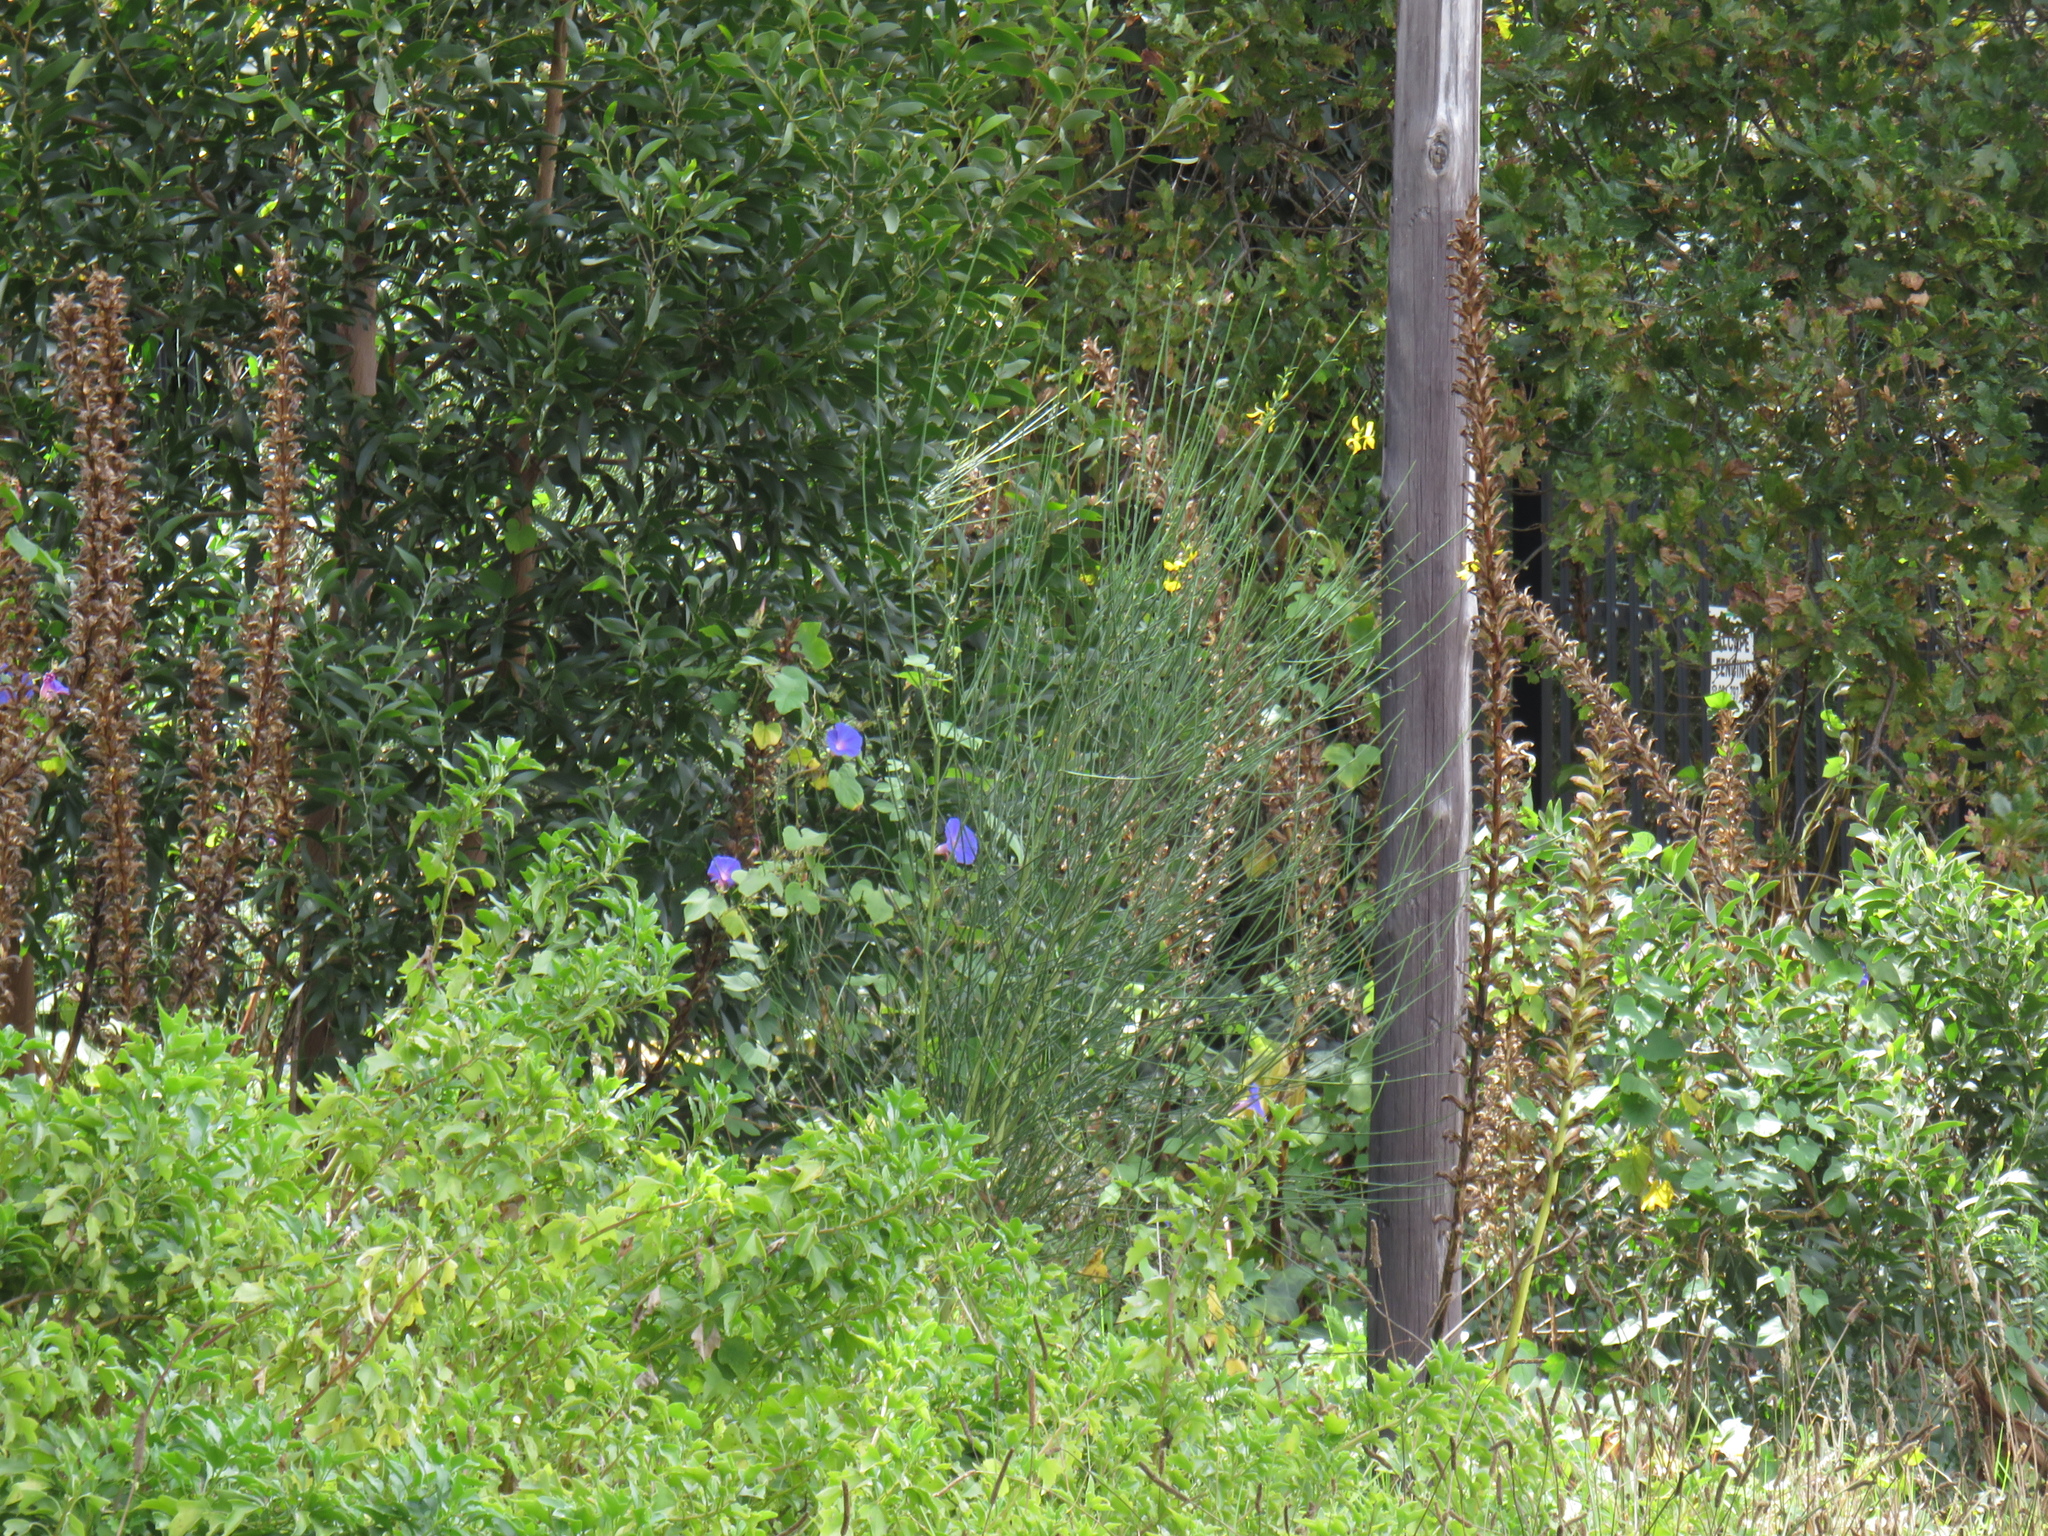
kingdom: Plantae
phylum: Tracheophyta
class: Magnoliopsida
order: Fabales
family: Fabaceae
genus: Spartium
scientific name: Spartium junceum
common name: Spanish broom
